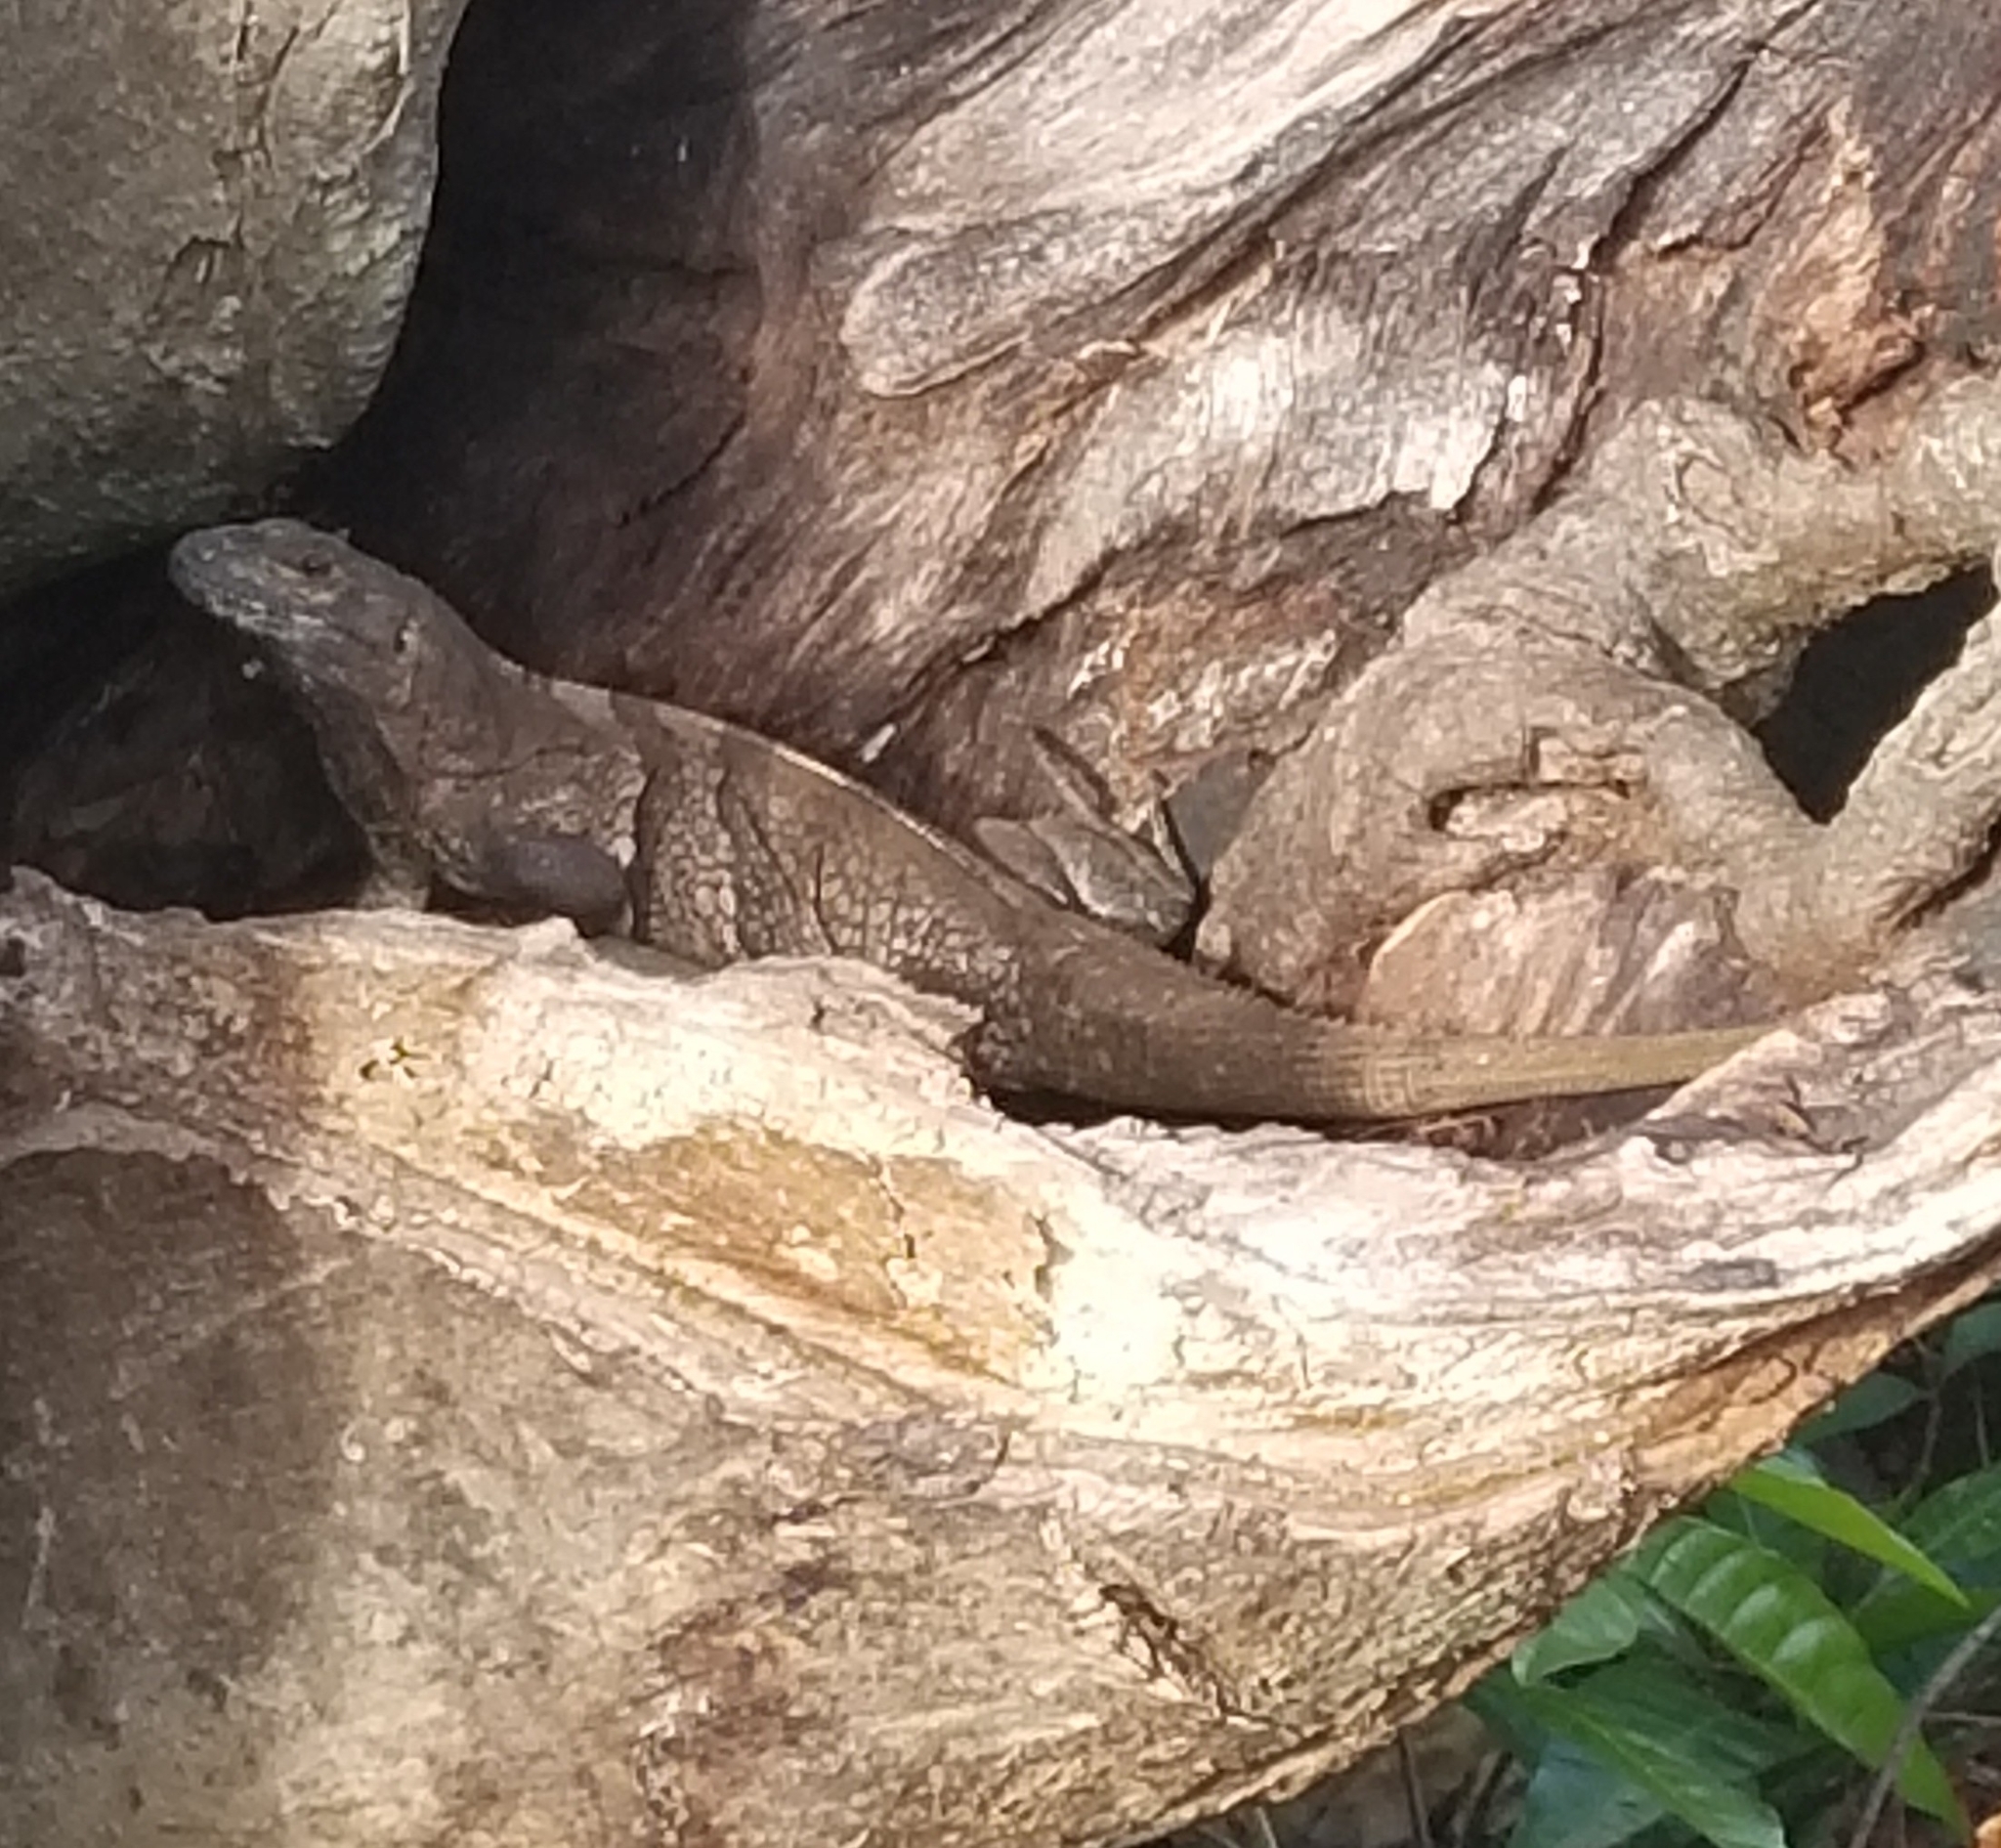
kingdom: Animalia
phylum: Chordata
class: Squamata
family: Iguanidae
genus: Ctenosaura
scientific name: Ctenosaura similis
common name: Black spiny-tailed iguana
